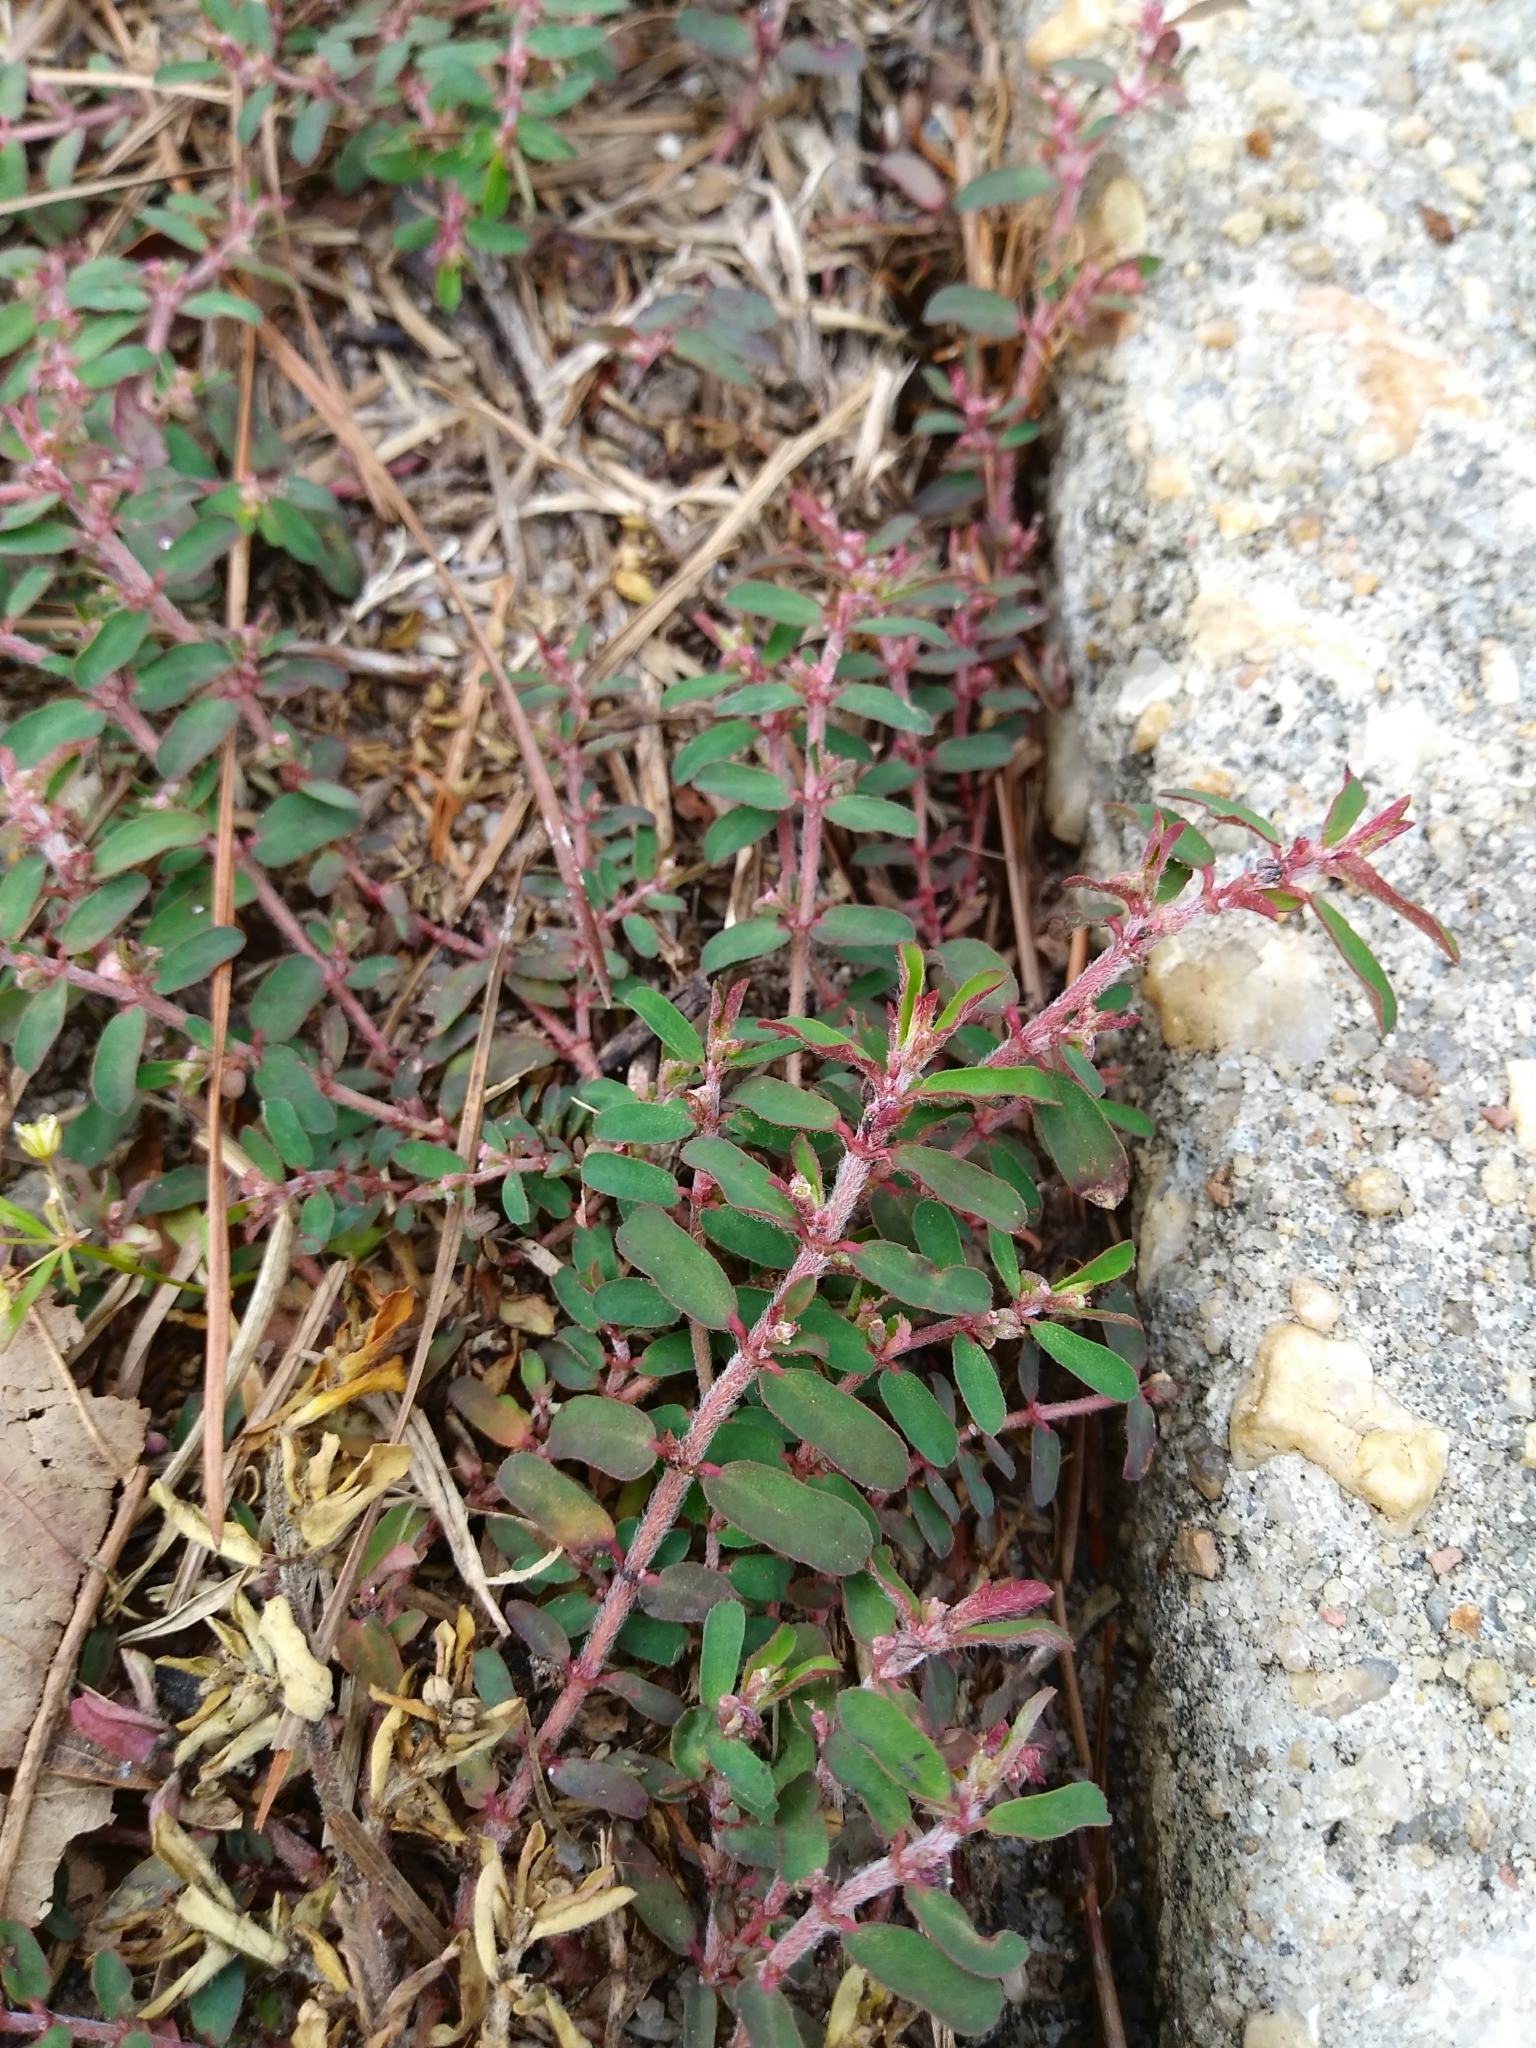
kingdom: Plantae
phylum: Tracheophyta
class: Magnoliopsida
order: Malpighiales
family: Euphorbiaceae
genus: Euphorbia
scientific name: Euphorbia maculata
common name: Spotted spurge
